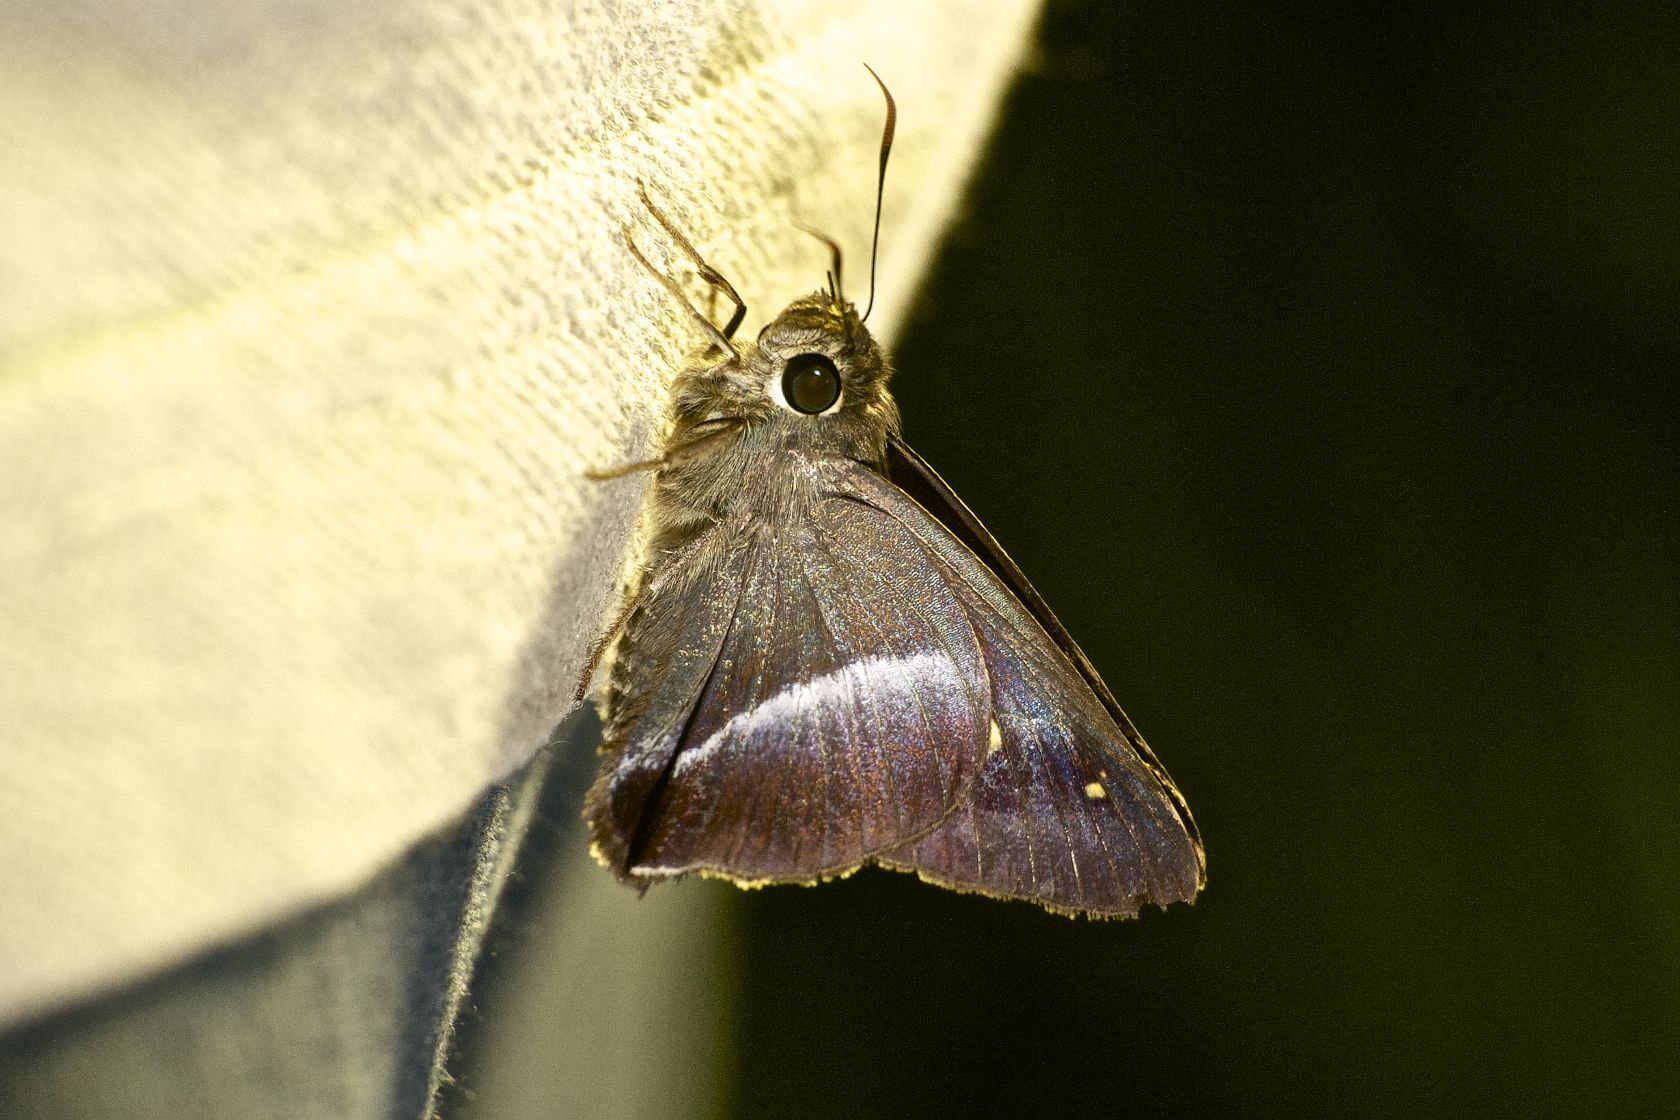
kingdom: Animalia
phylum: Arthropoda
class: Insecta
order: Lepidoptera
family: Hesperiidae
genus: Hasora
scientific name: Hasora vitta
